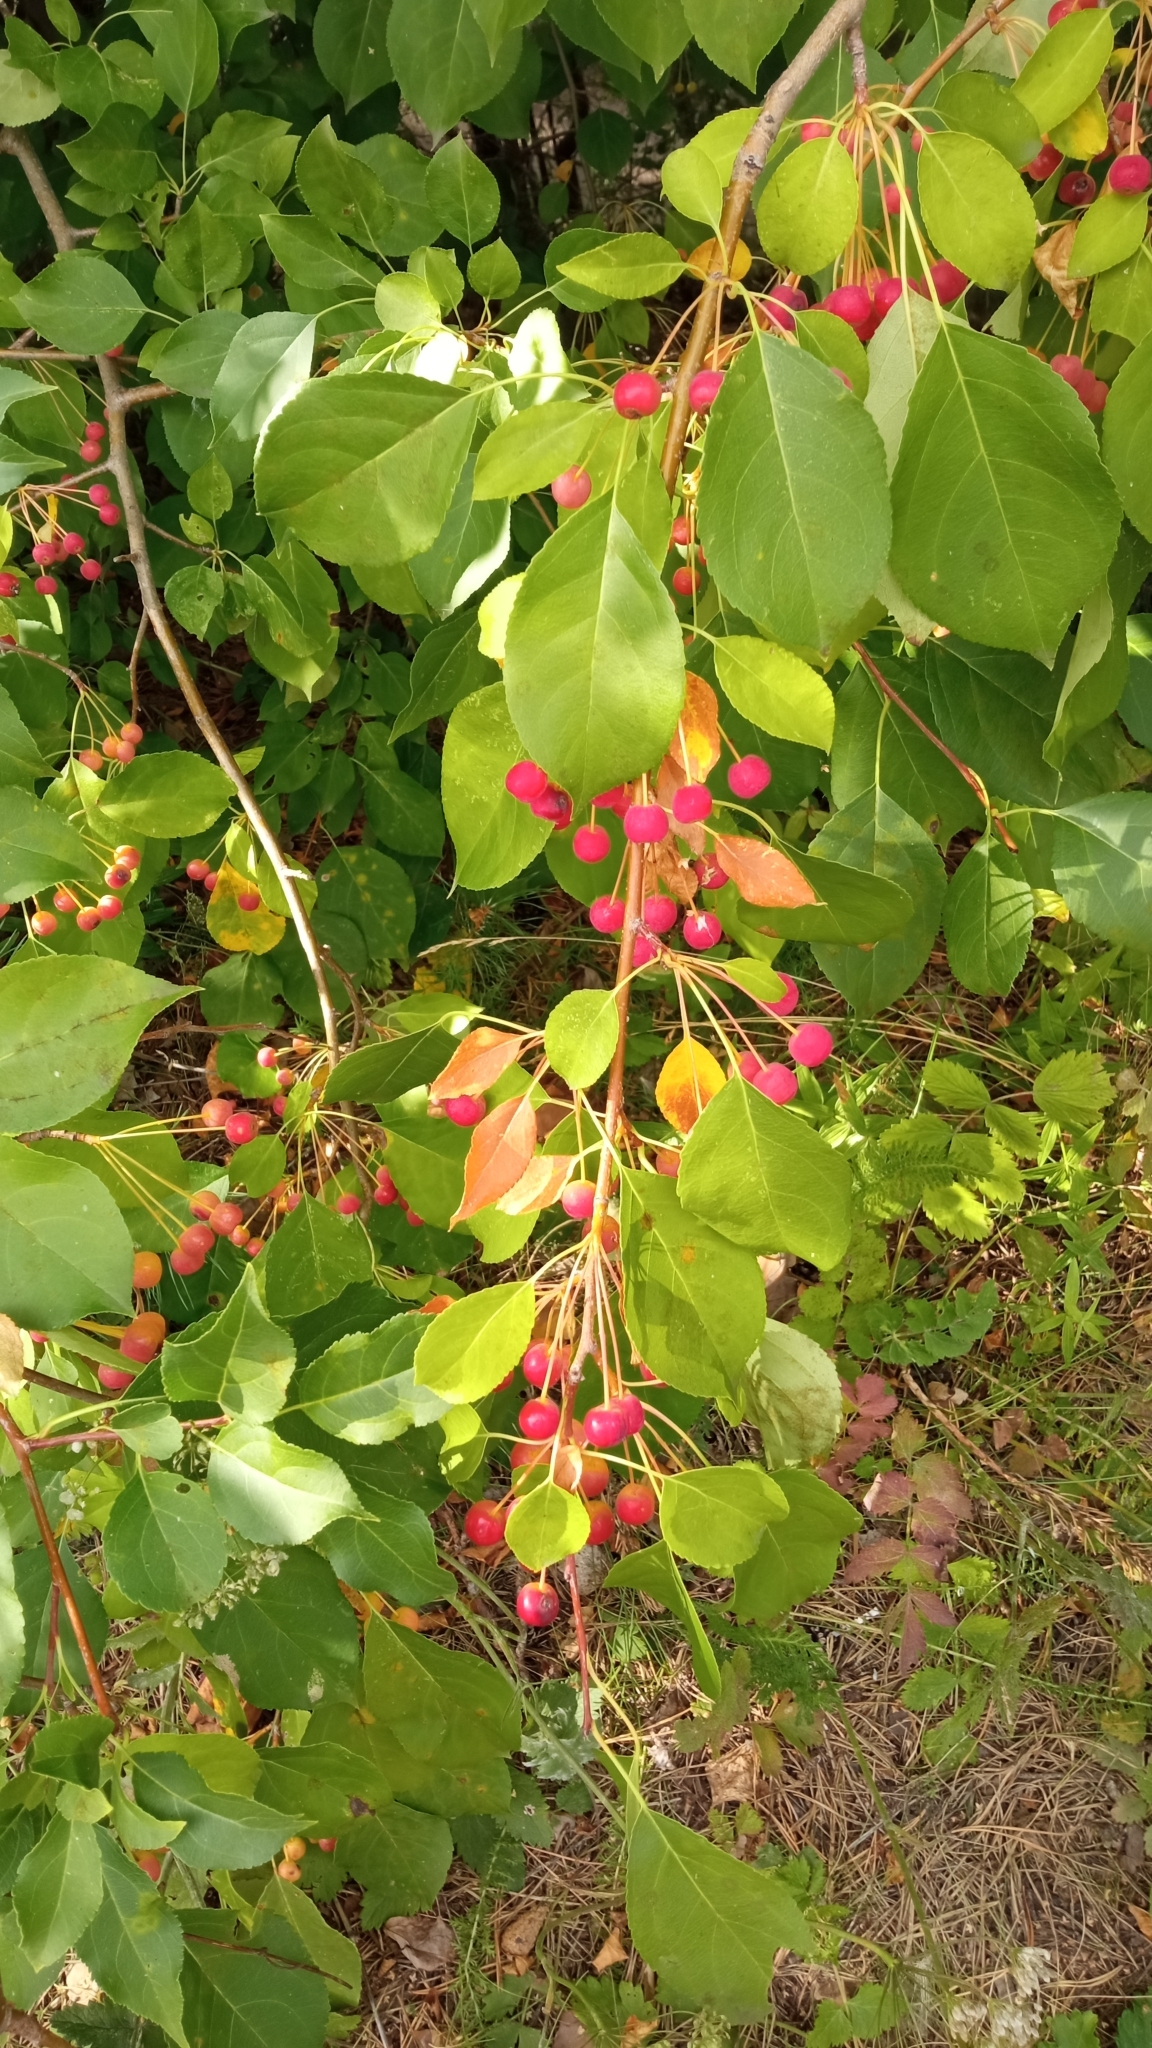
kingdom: Plantae
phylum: Tracheophyta
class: Magnoliopsida
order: Rosales
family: Rosaceae
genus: Malus
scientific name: Malus baccata
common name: Siberian crab
